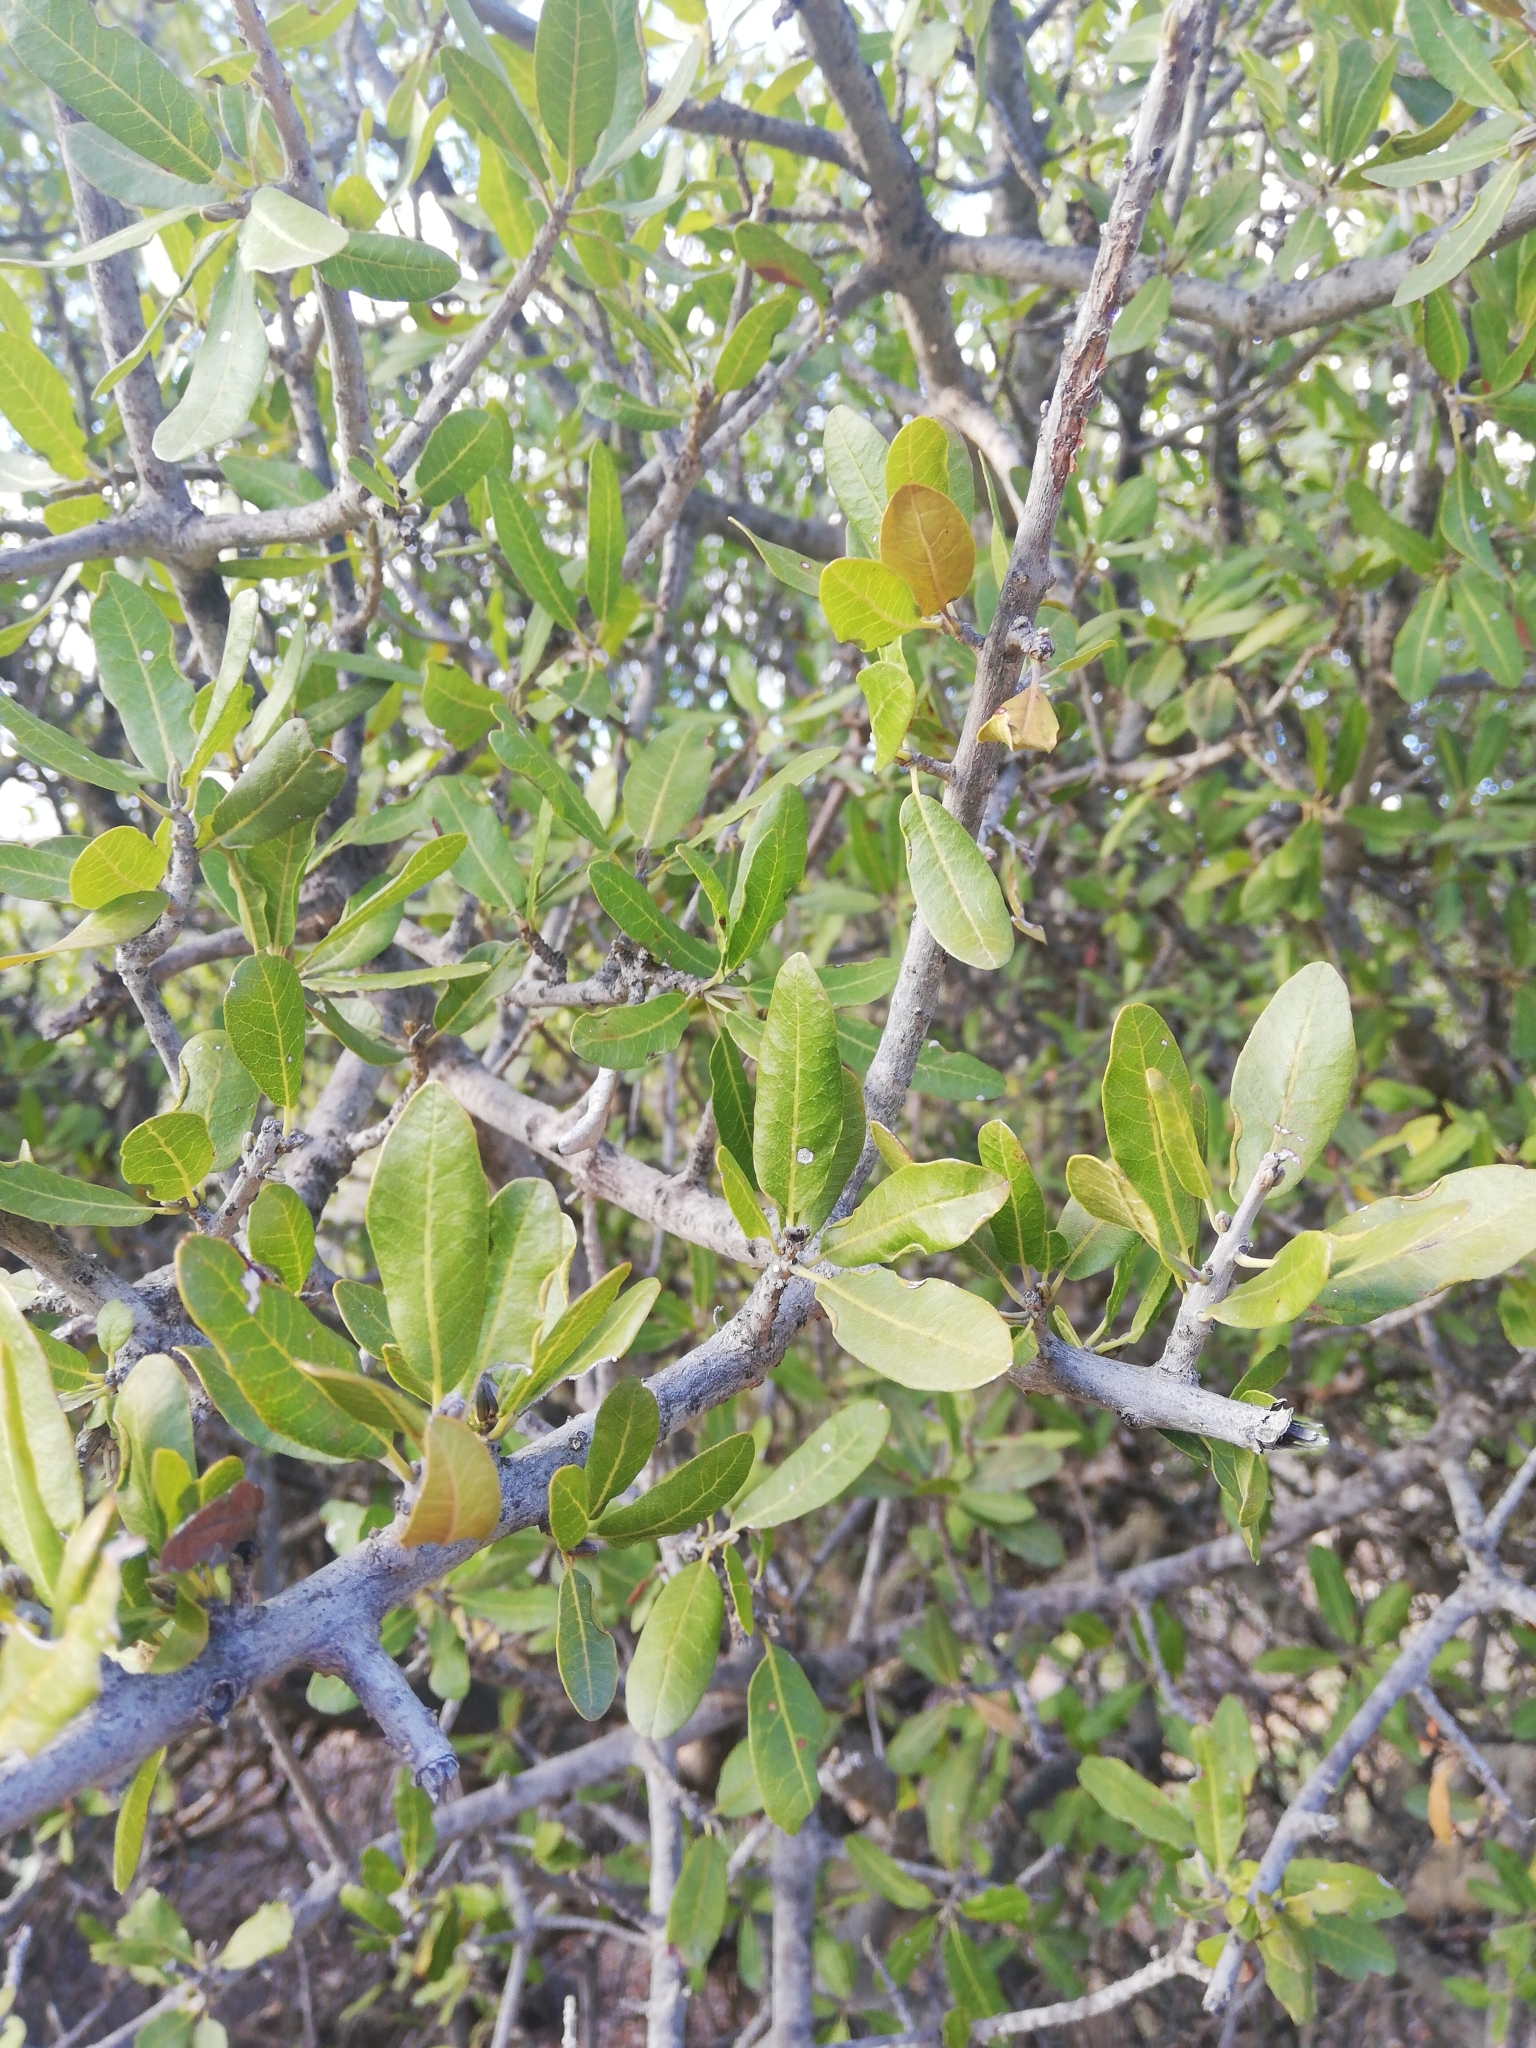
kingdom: Plantae
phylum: Tracheophyta
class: Magnoliopsida
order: Sapindales
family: Sapindaceae
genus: Pappea
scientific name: Pappea capensis
